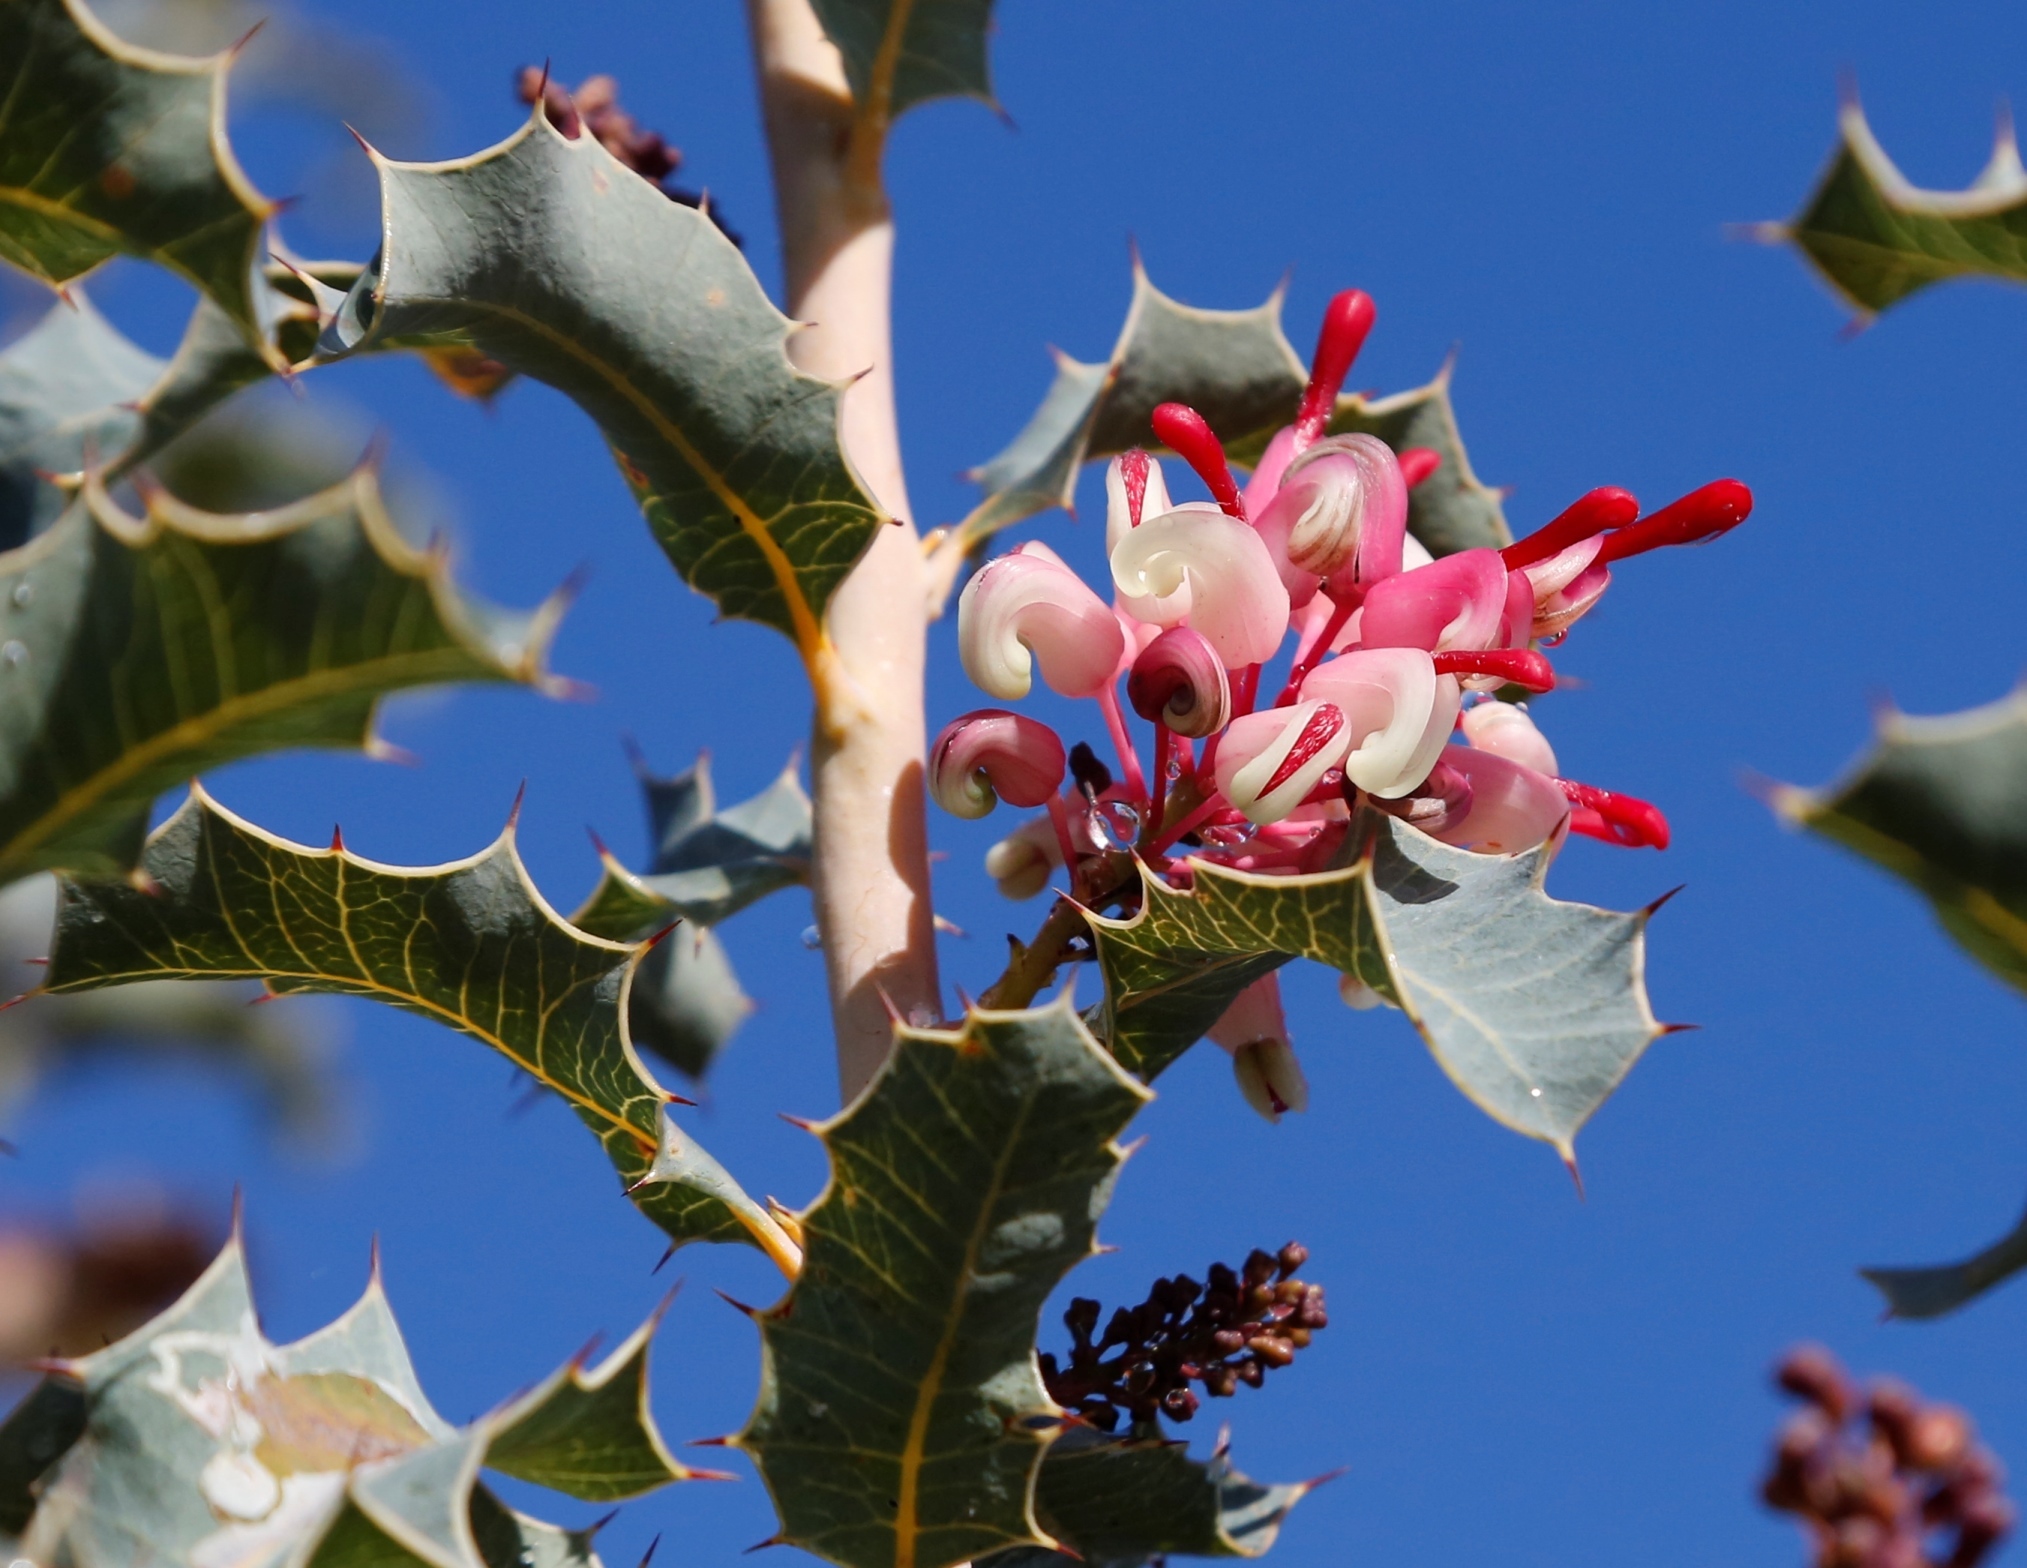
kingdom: Plantae
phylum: Tracheophyta
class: Magnoliopsida
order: Proteales
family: Proteaceae
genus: Grevillea
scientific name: Grevillea insignis
